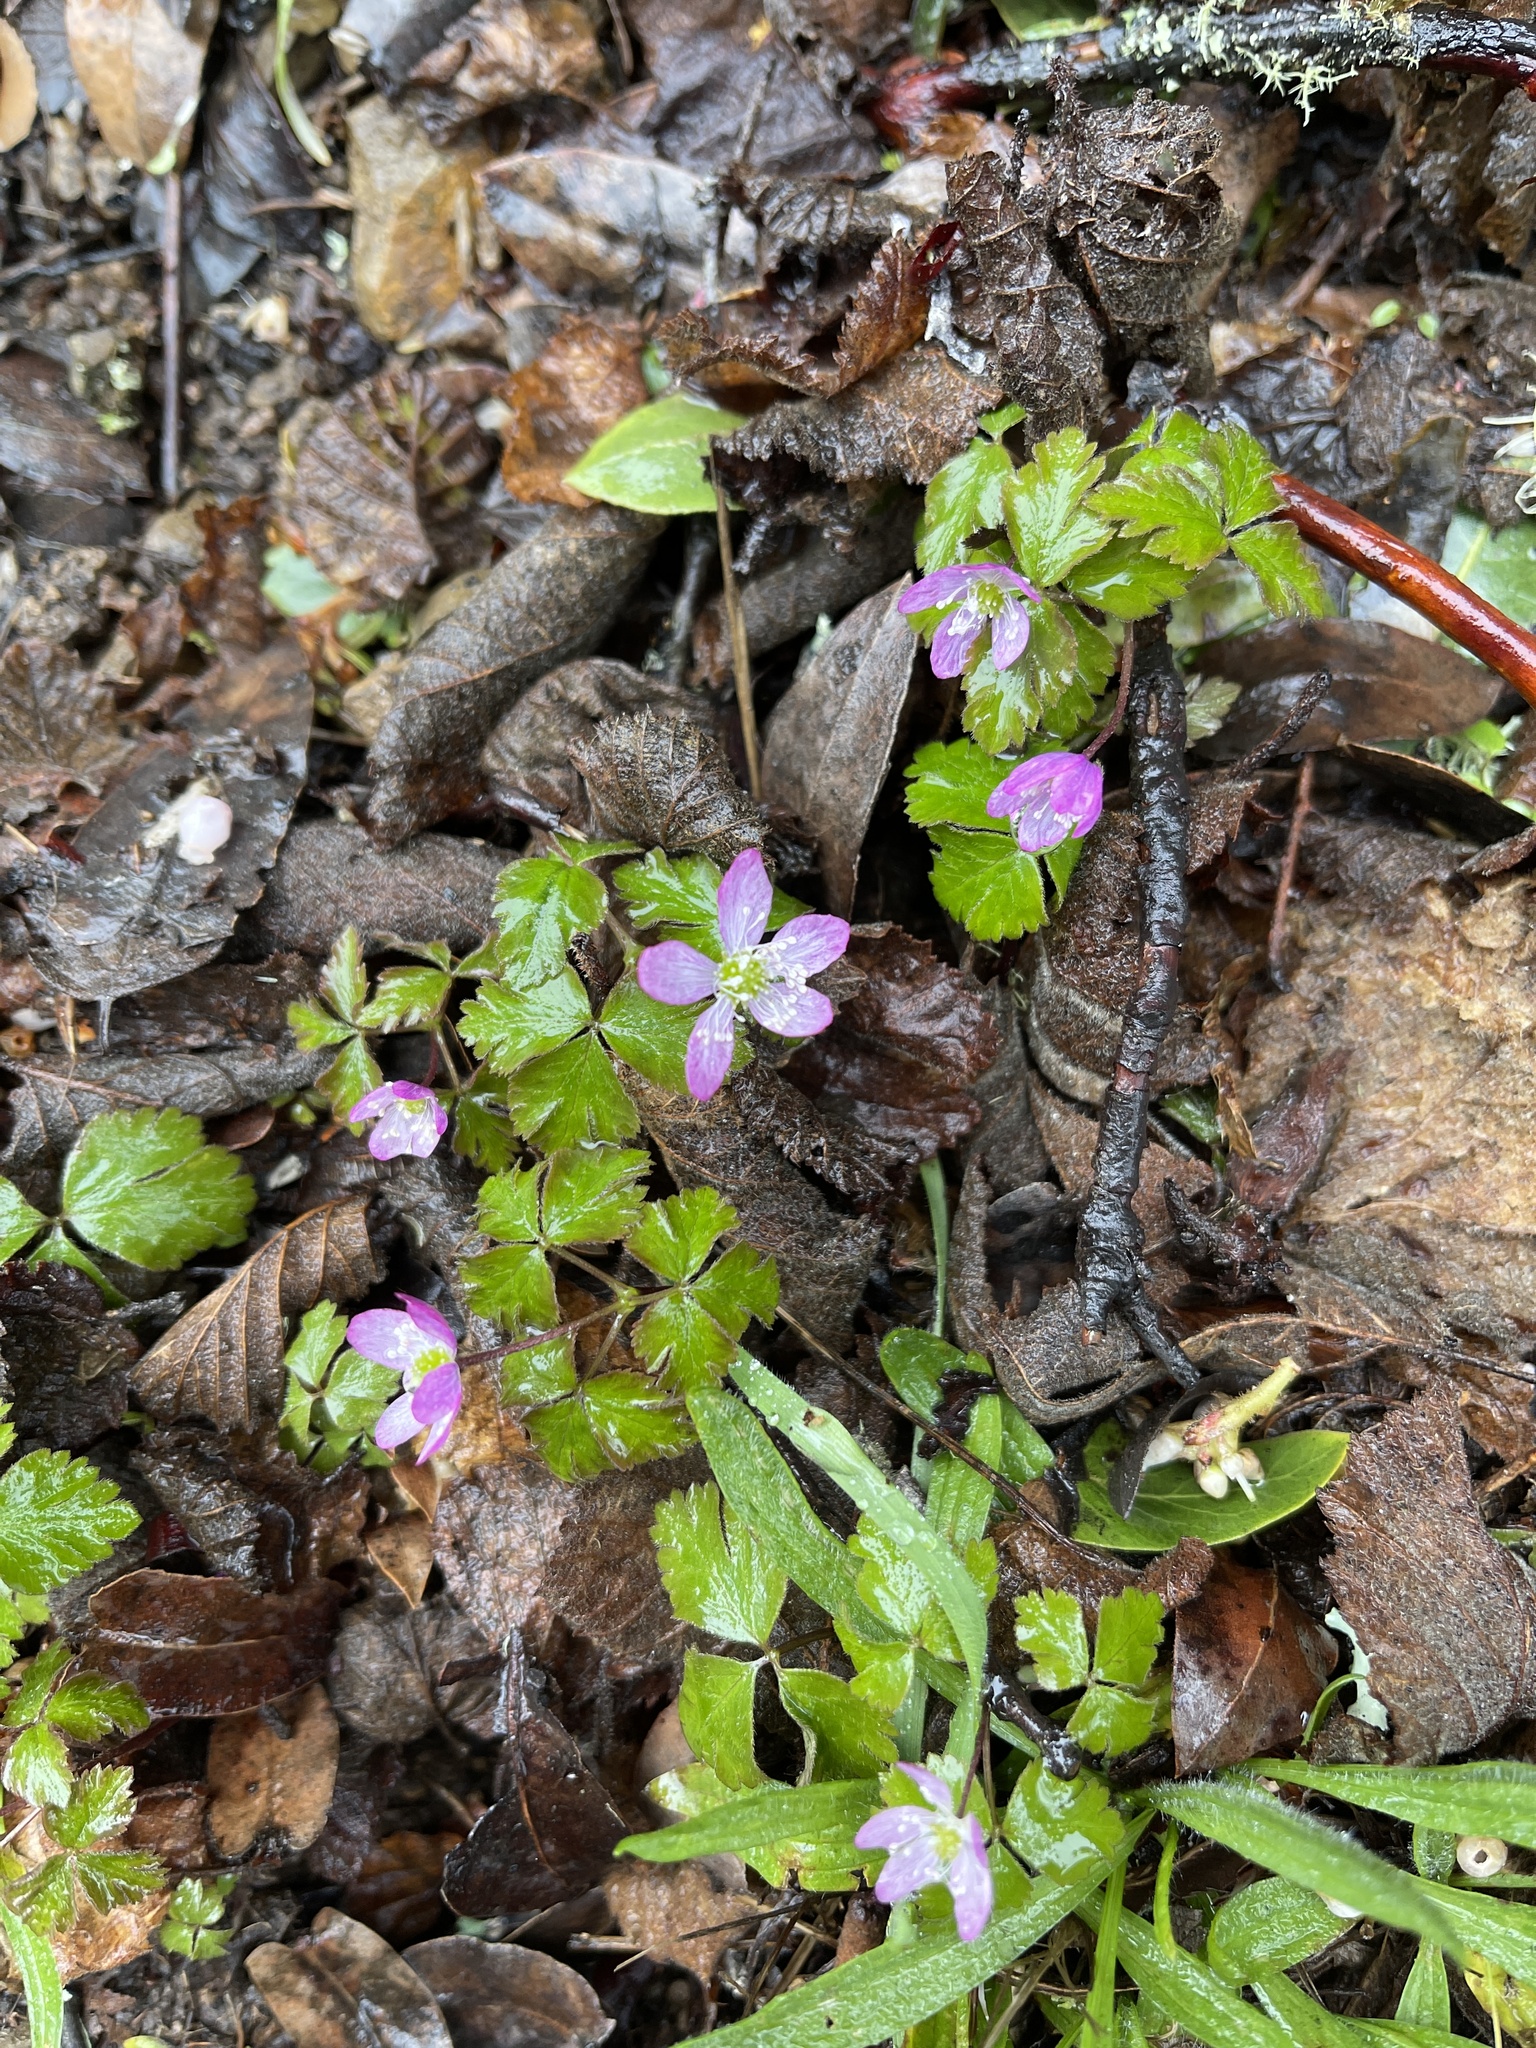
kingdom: Plantae
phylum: Tracheophyta
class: Magnoliopsida
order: Ranunculales
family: Ranunculaceae
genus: Anemone
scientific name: Anemone
